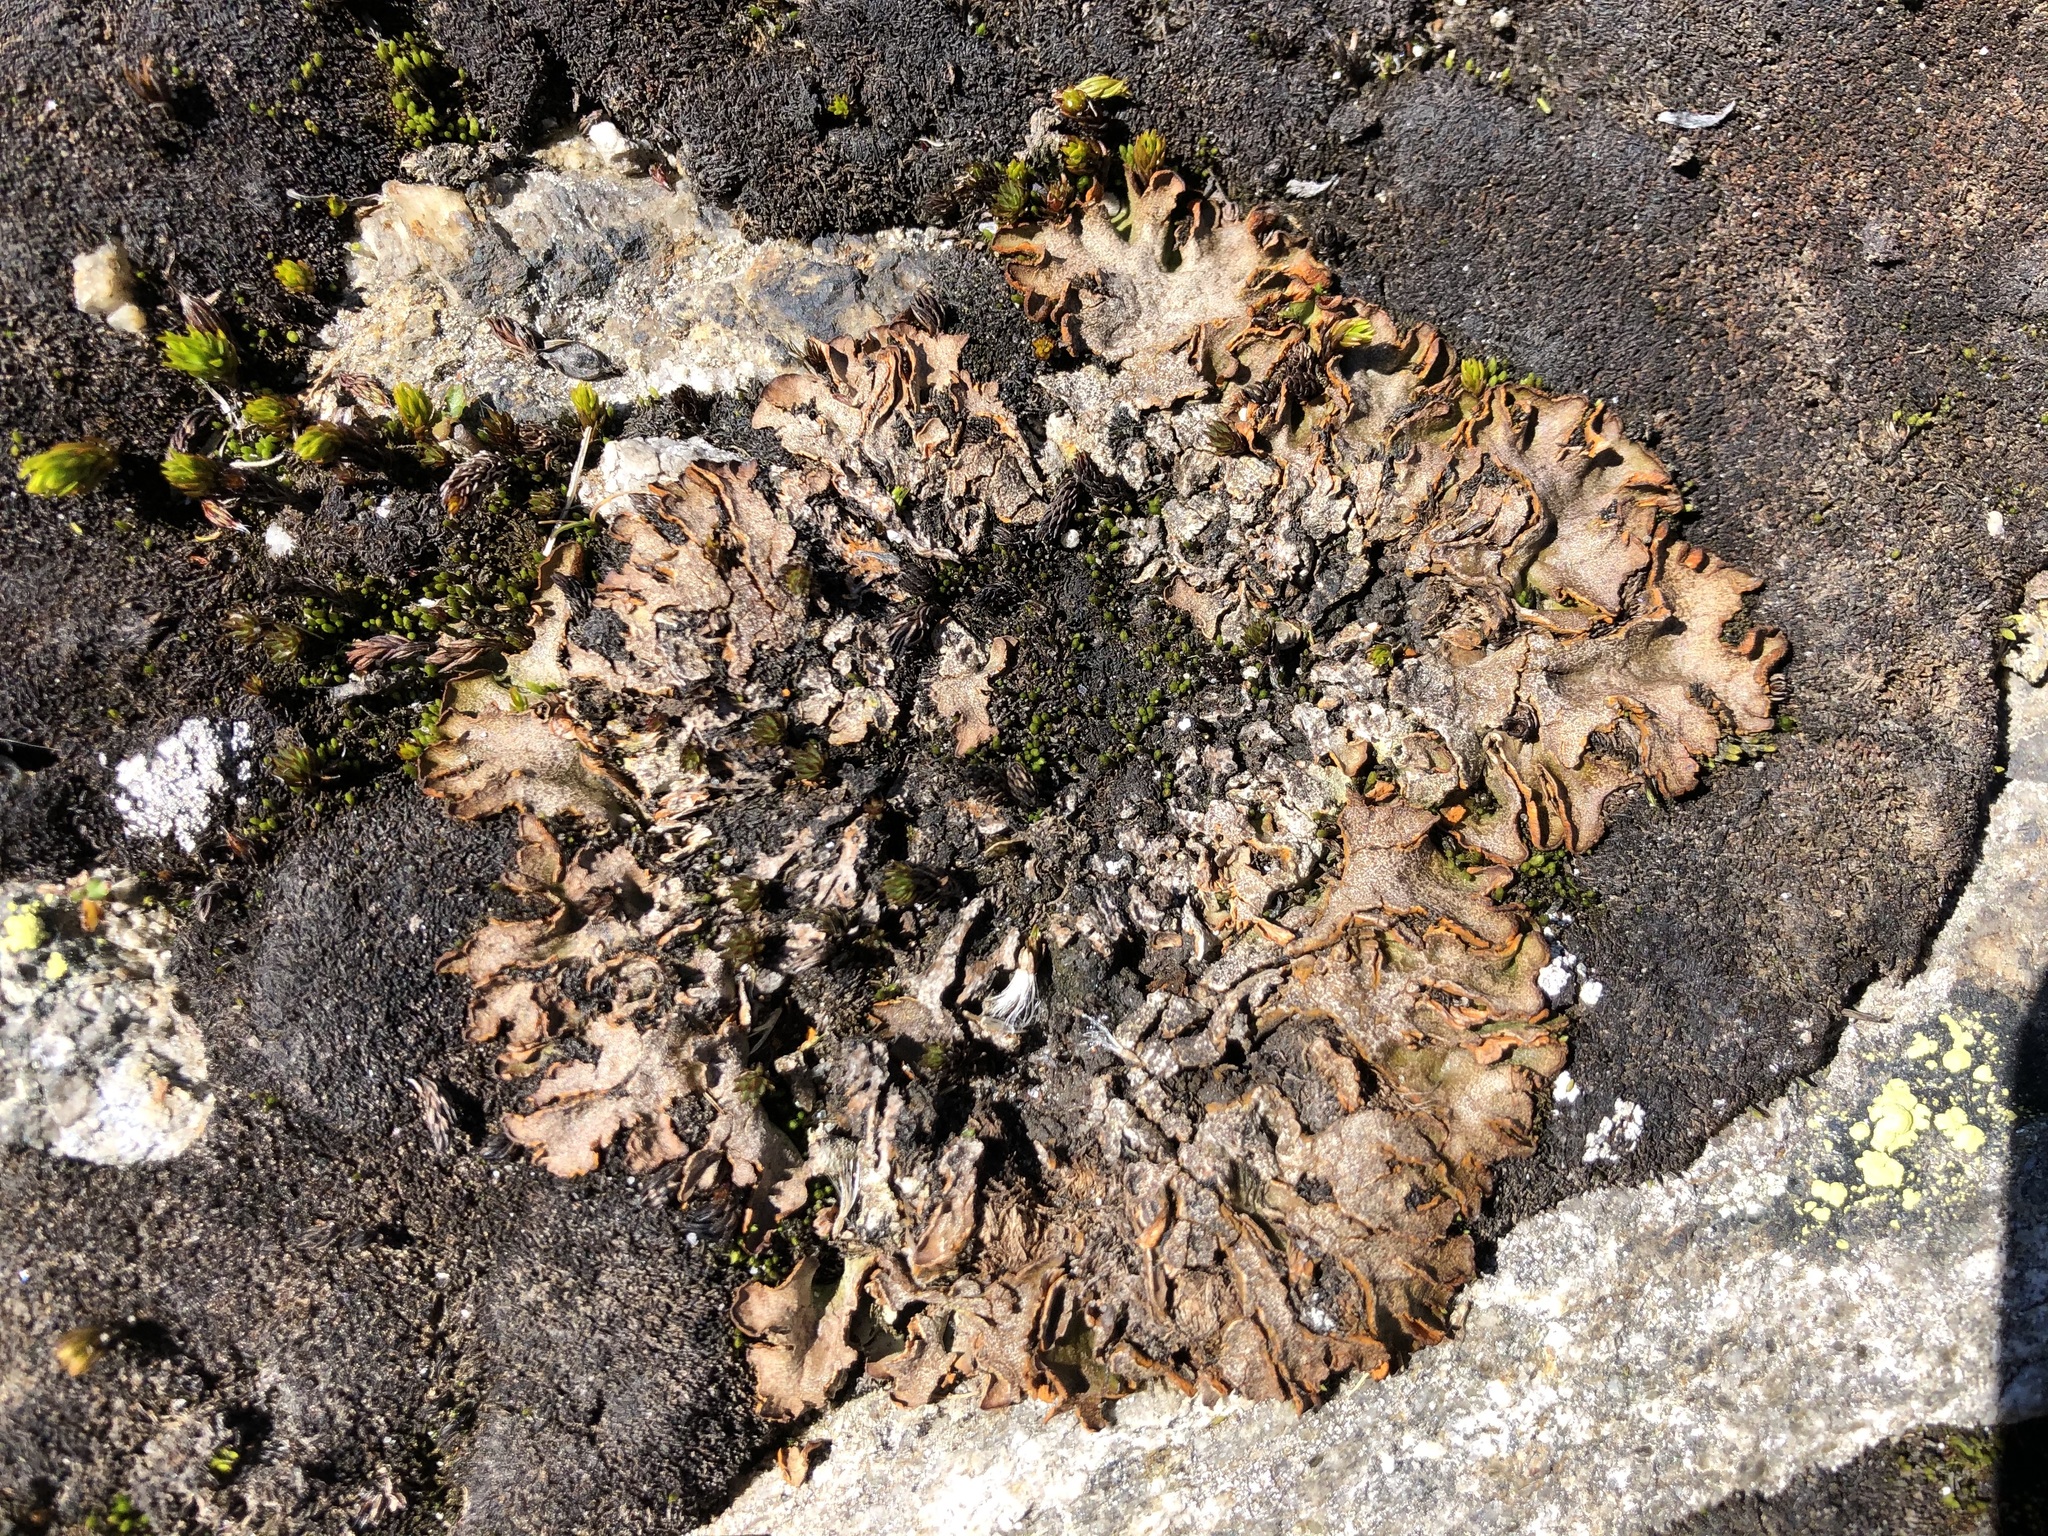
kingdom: Fungi
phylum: Ascomycota
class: Lecanoromycetes
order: Peltigerales
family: Peltigeraceae
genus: Solorina
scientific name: Solorina crocea
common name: Mountain saffron
